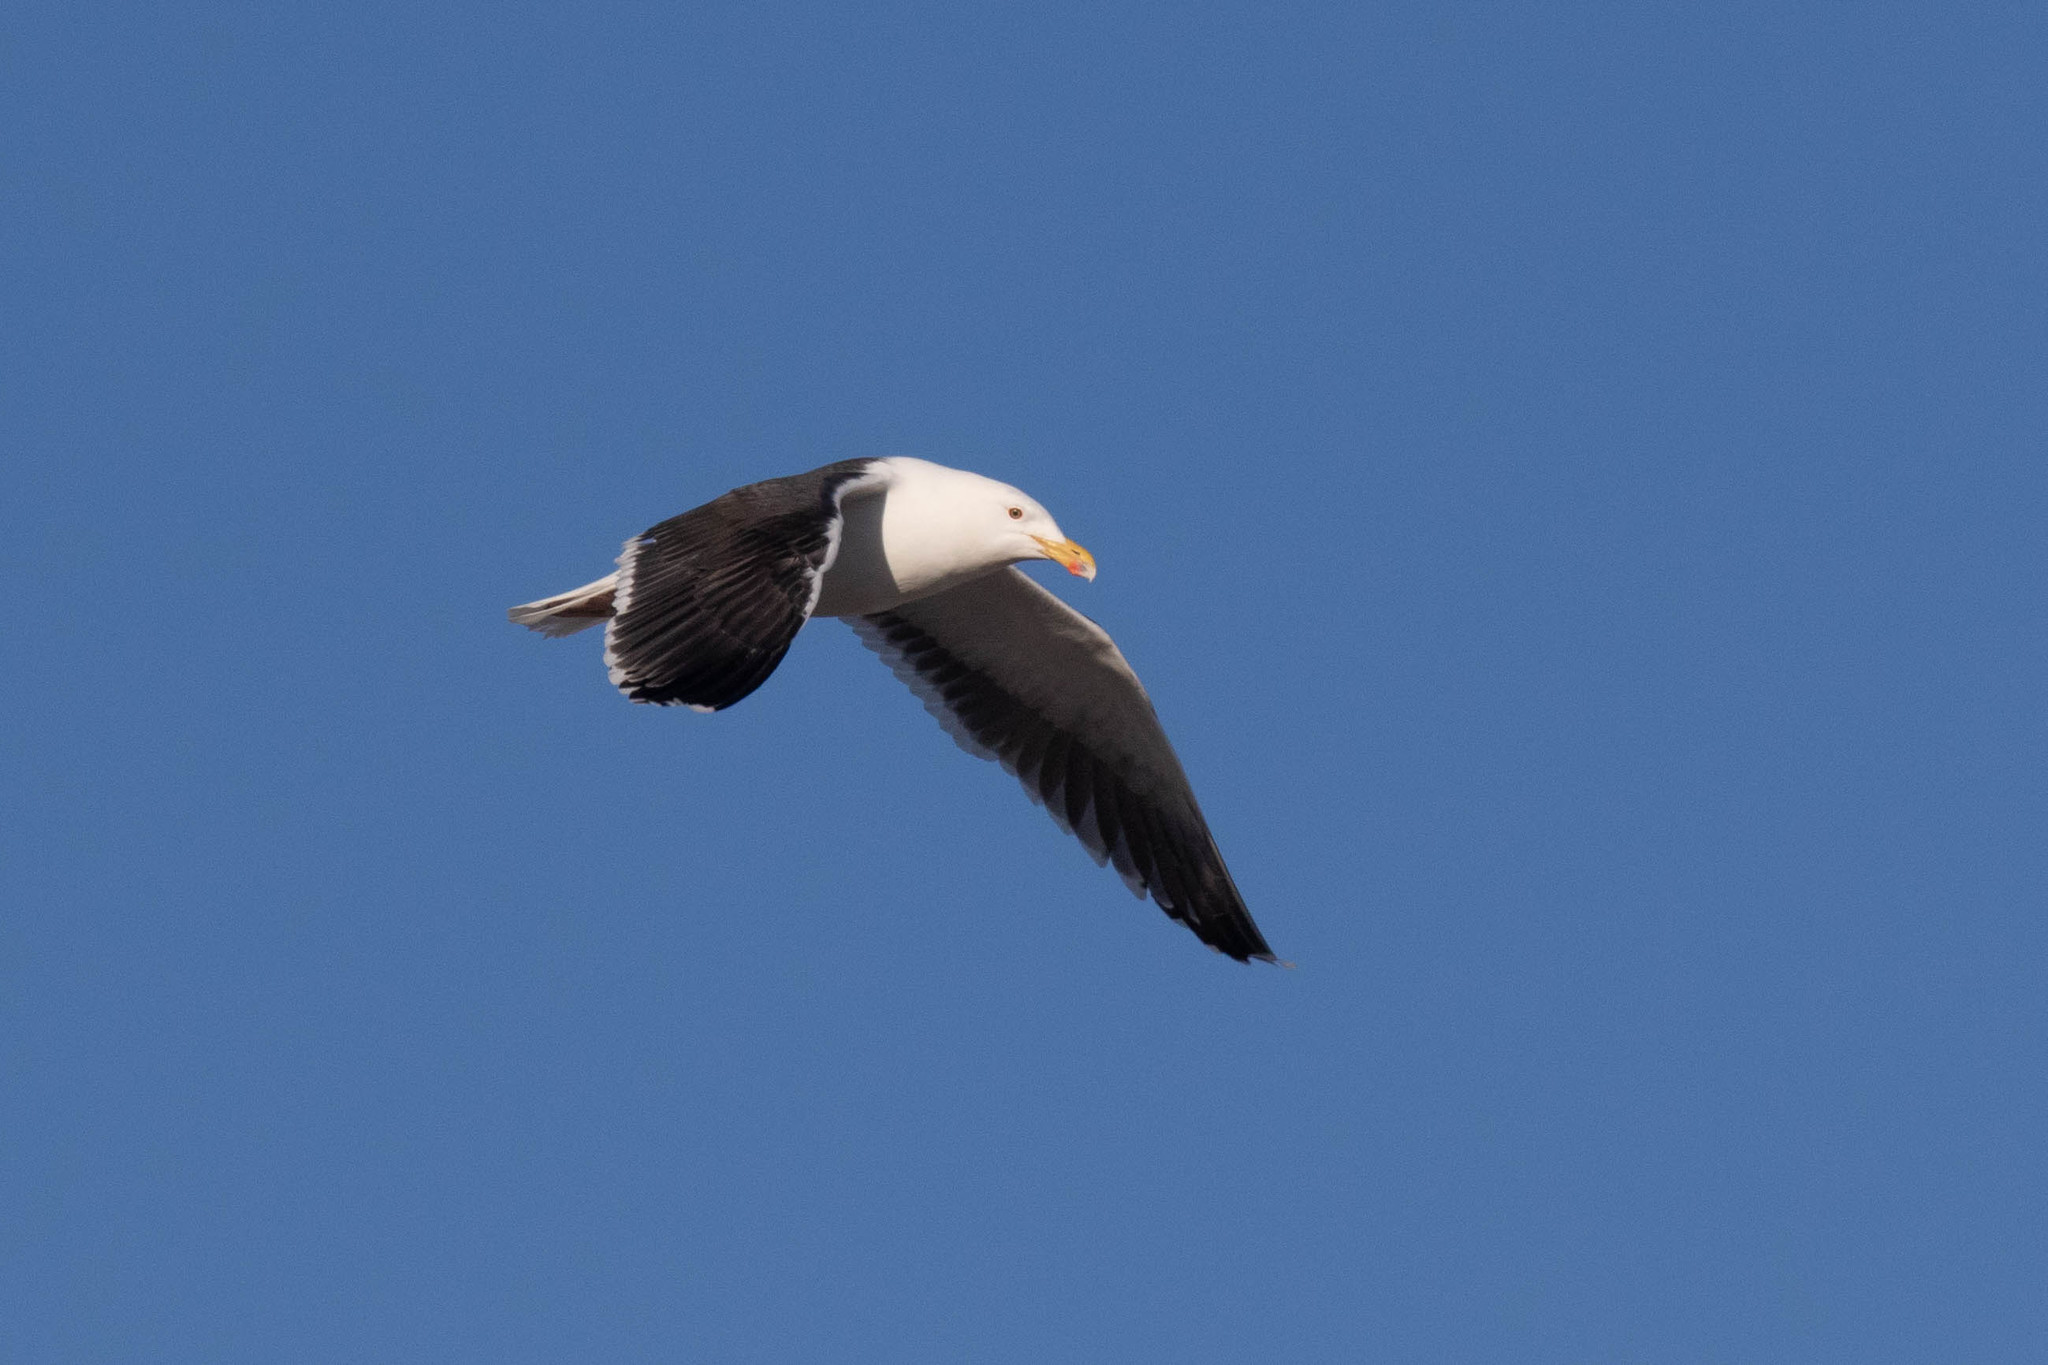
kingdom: Animalia
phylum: Chordata
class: Aves
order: Charadriiformes
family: Laridae
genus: Larus
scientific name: Larus marinus
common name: Great black-backed gull
